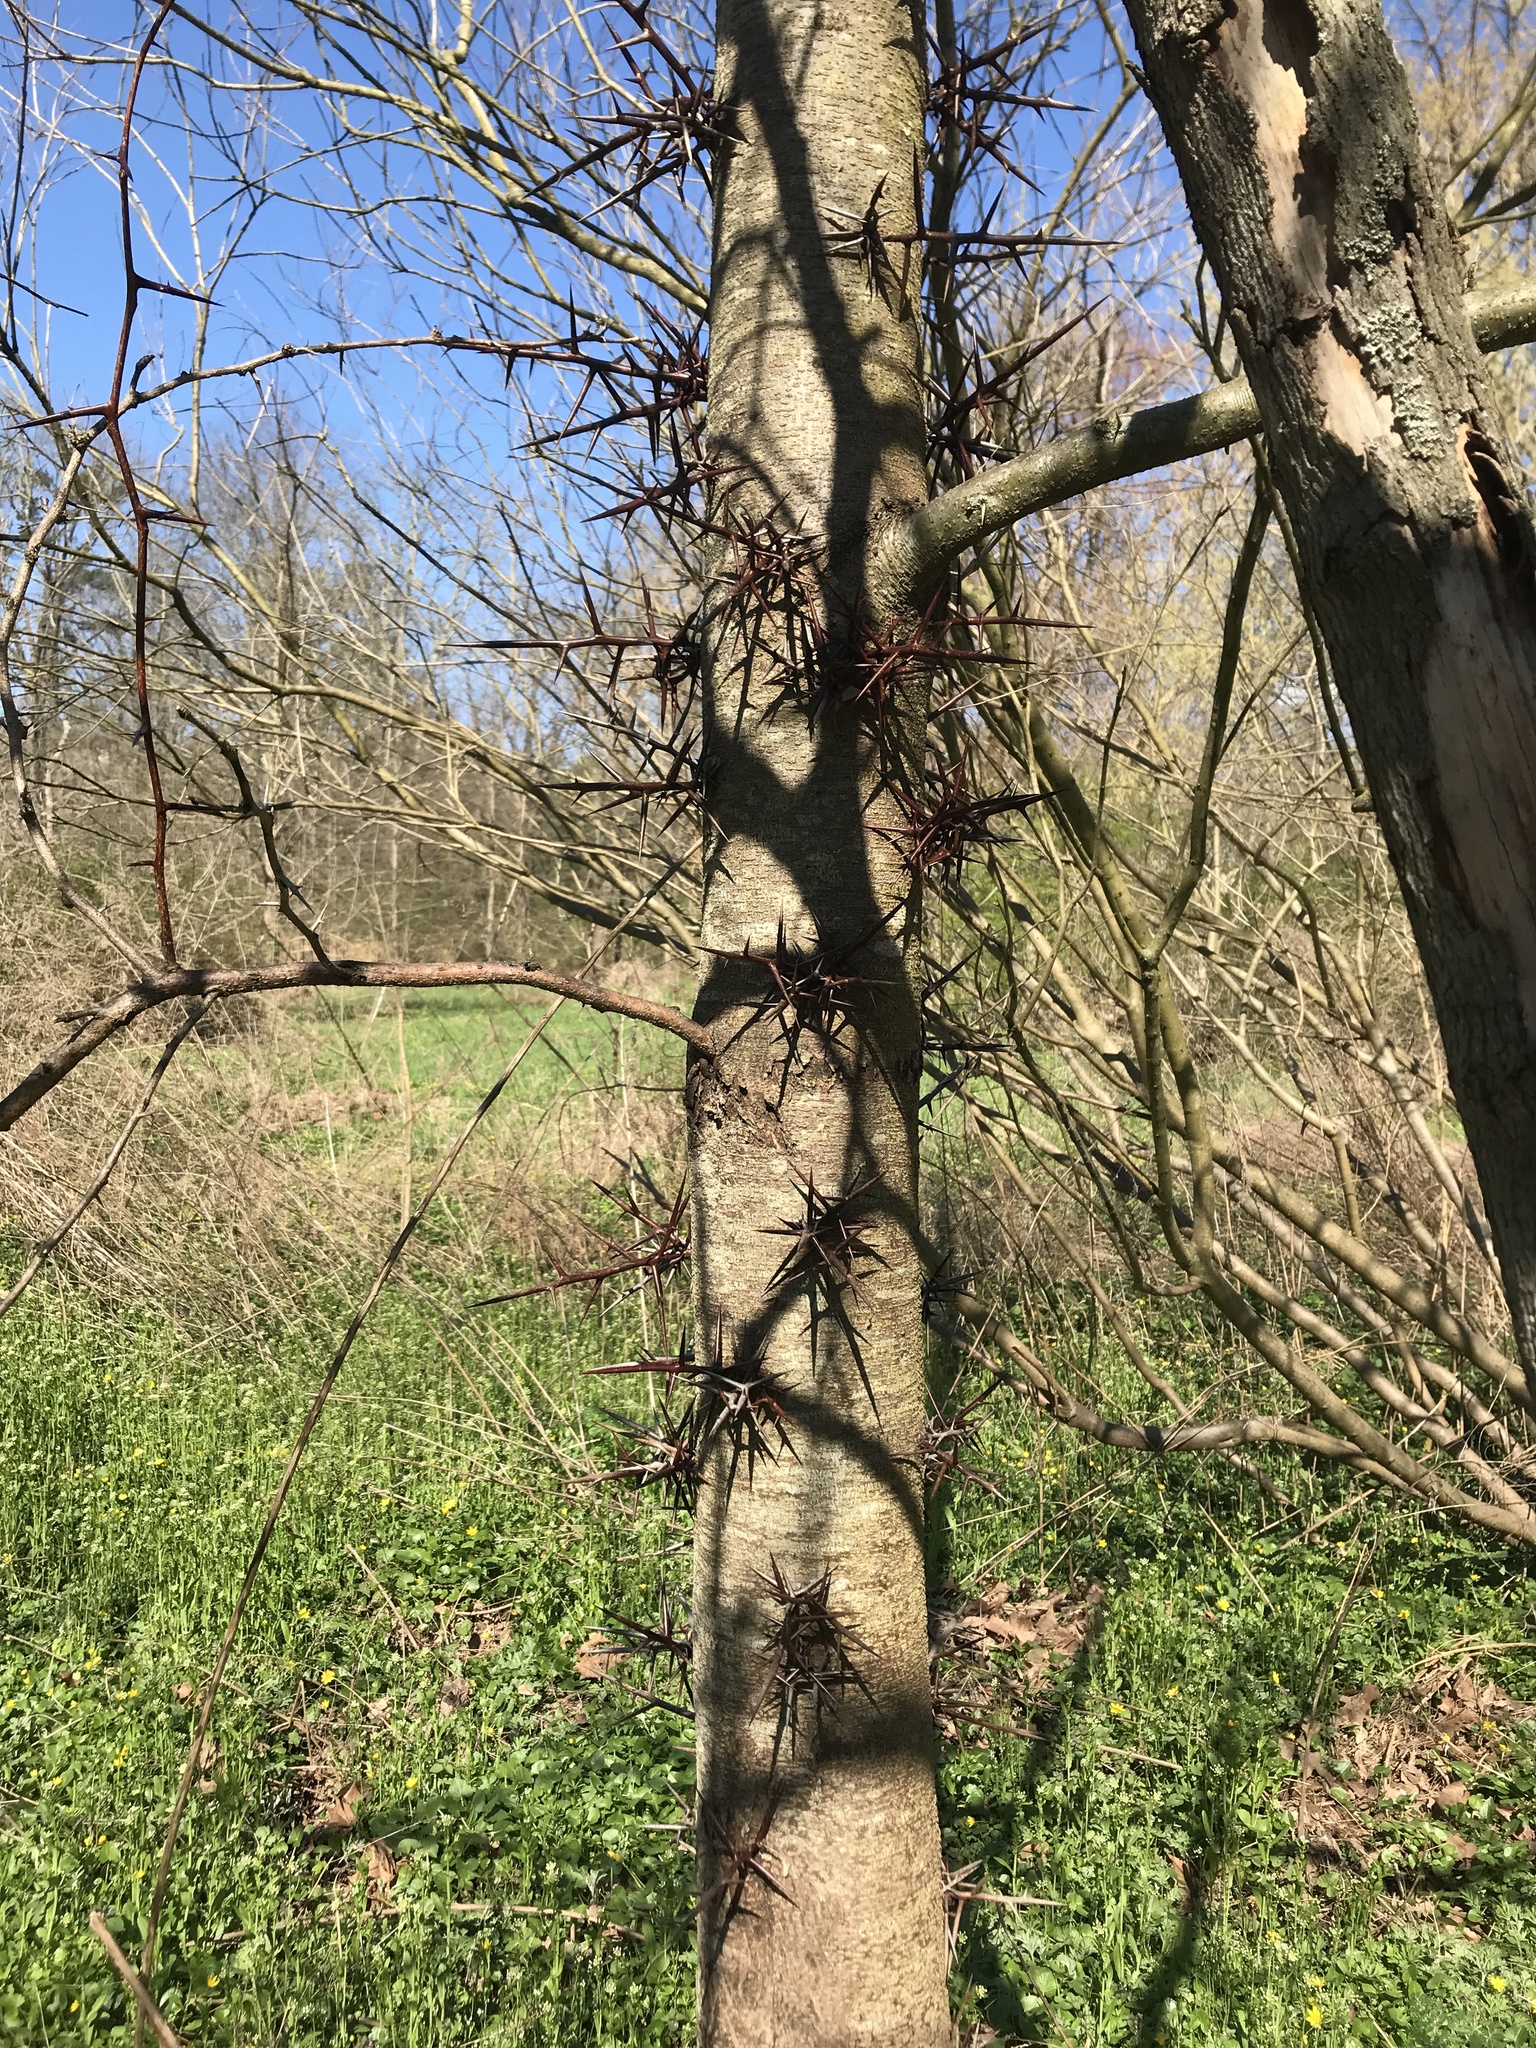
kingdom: Plantae
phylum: Tracheophyta
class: Magnoliopsida
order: Fabales
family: Fabaceae
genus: Gleditsia
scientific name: Gleditsia triacanthos
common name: Common honeylocust
